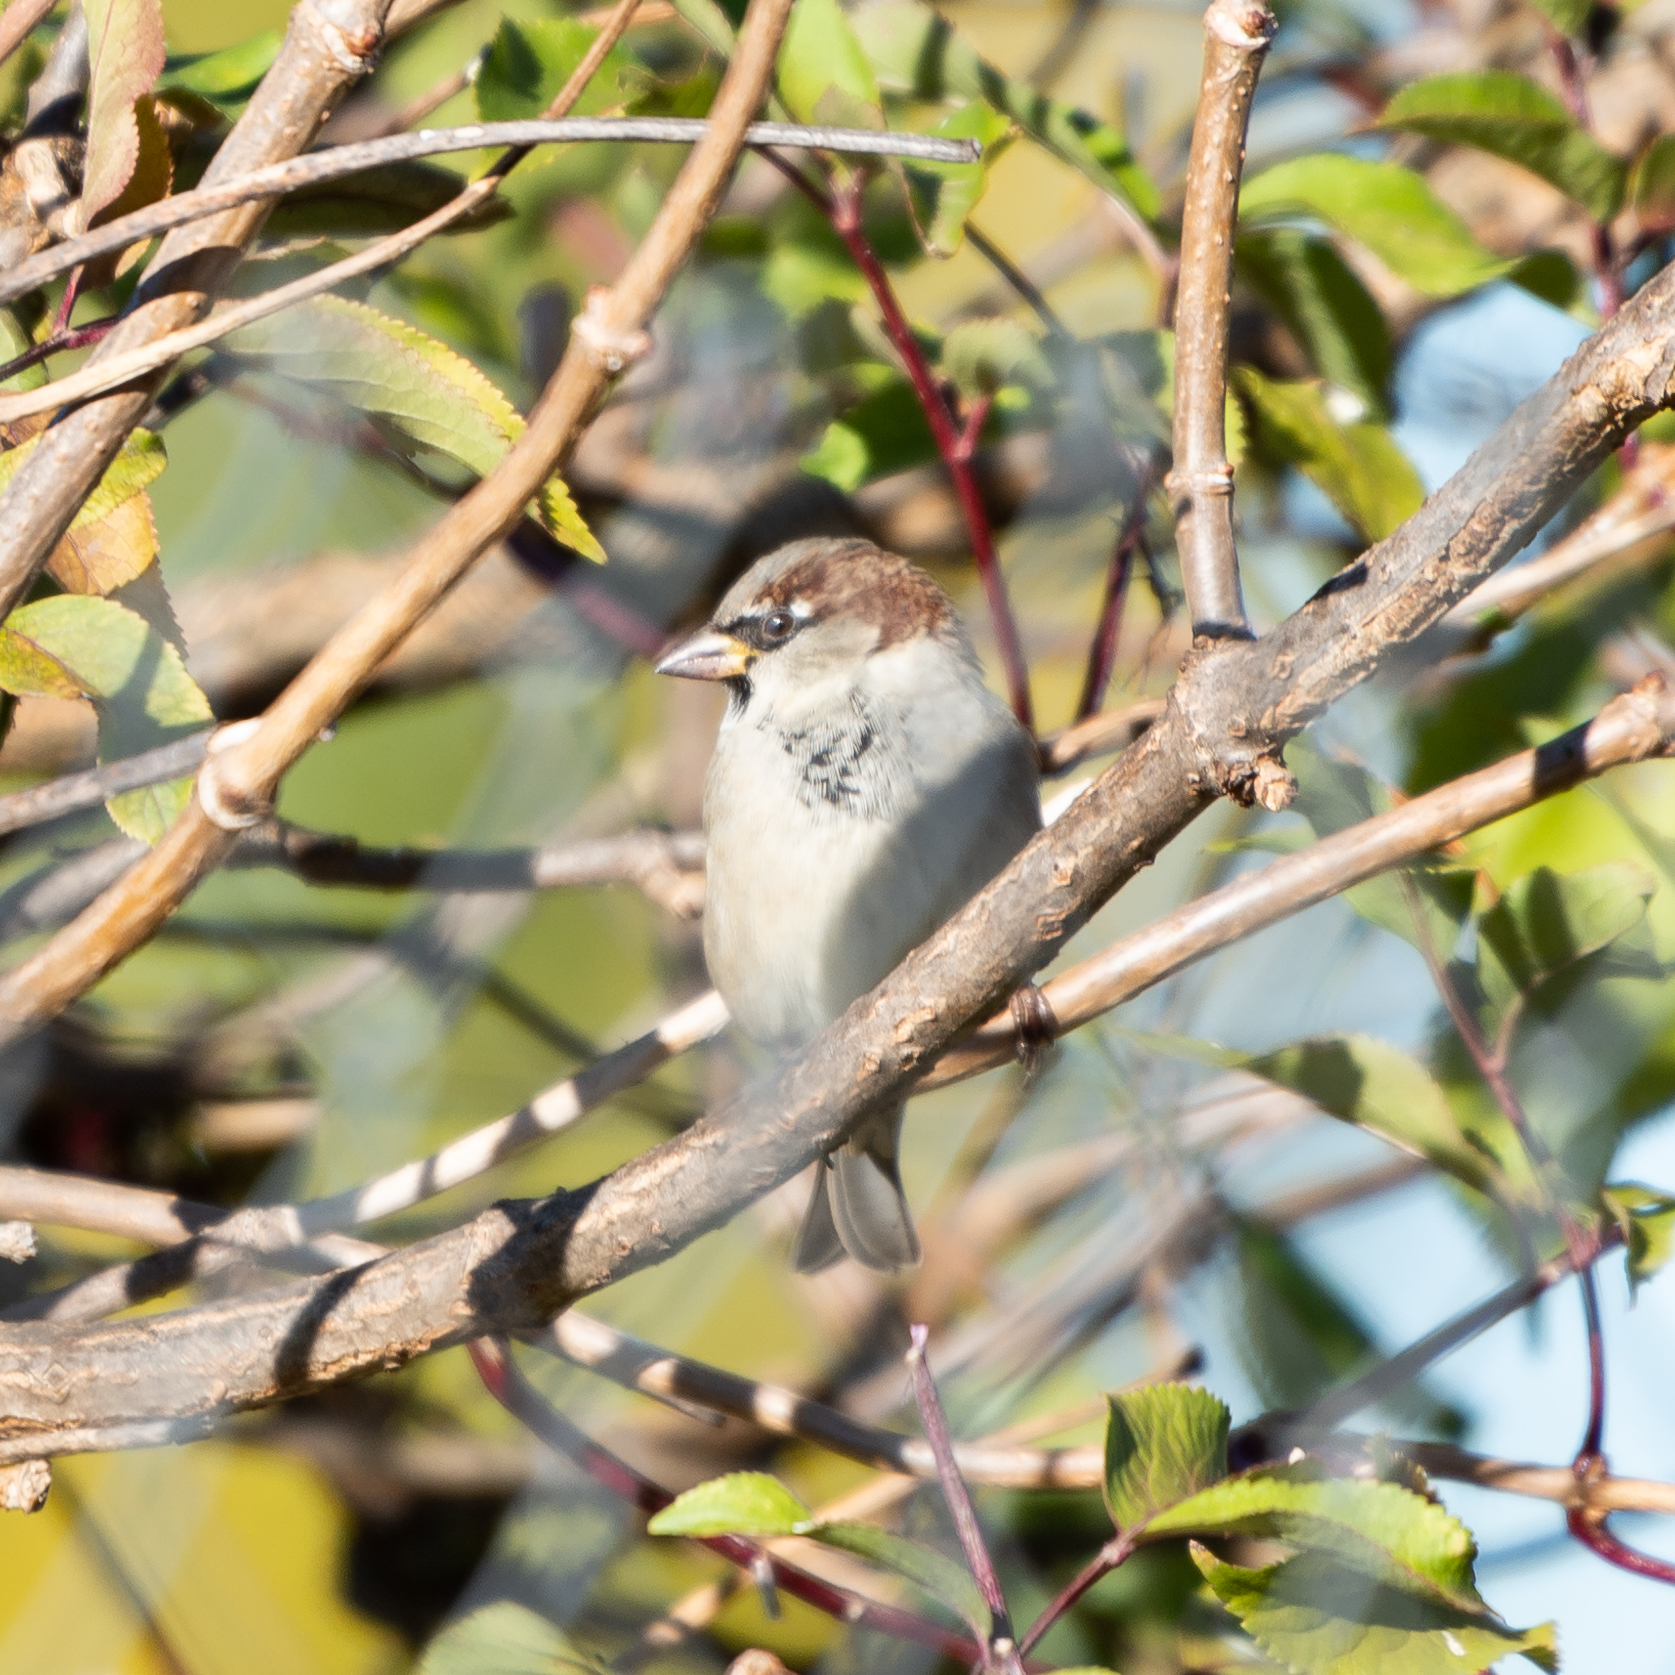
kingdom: Animalia
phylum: Chordata
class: Aves
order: Passeriformes
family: Passeridae
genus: Passer
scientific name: Passer domesticus
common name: House sparrow
